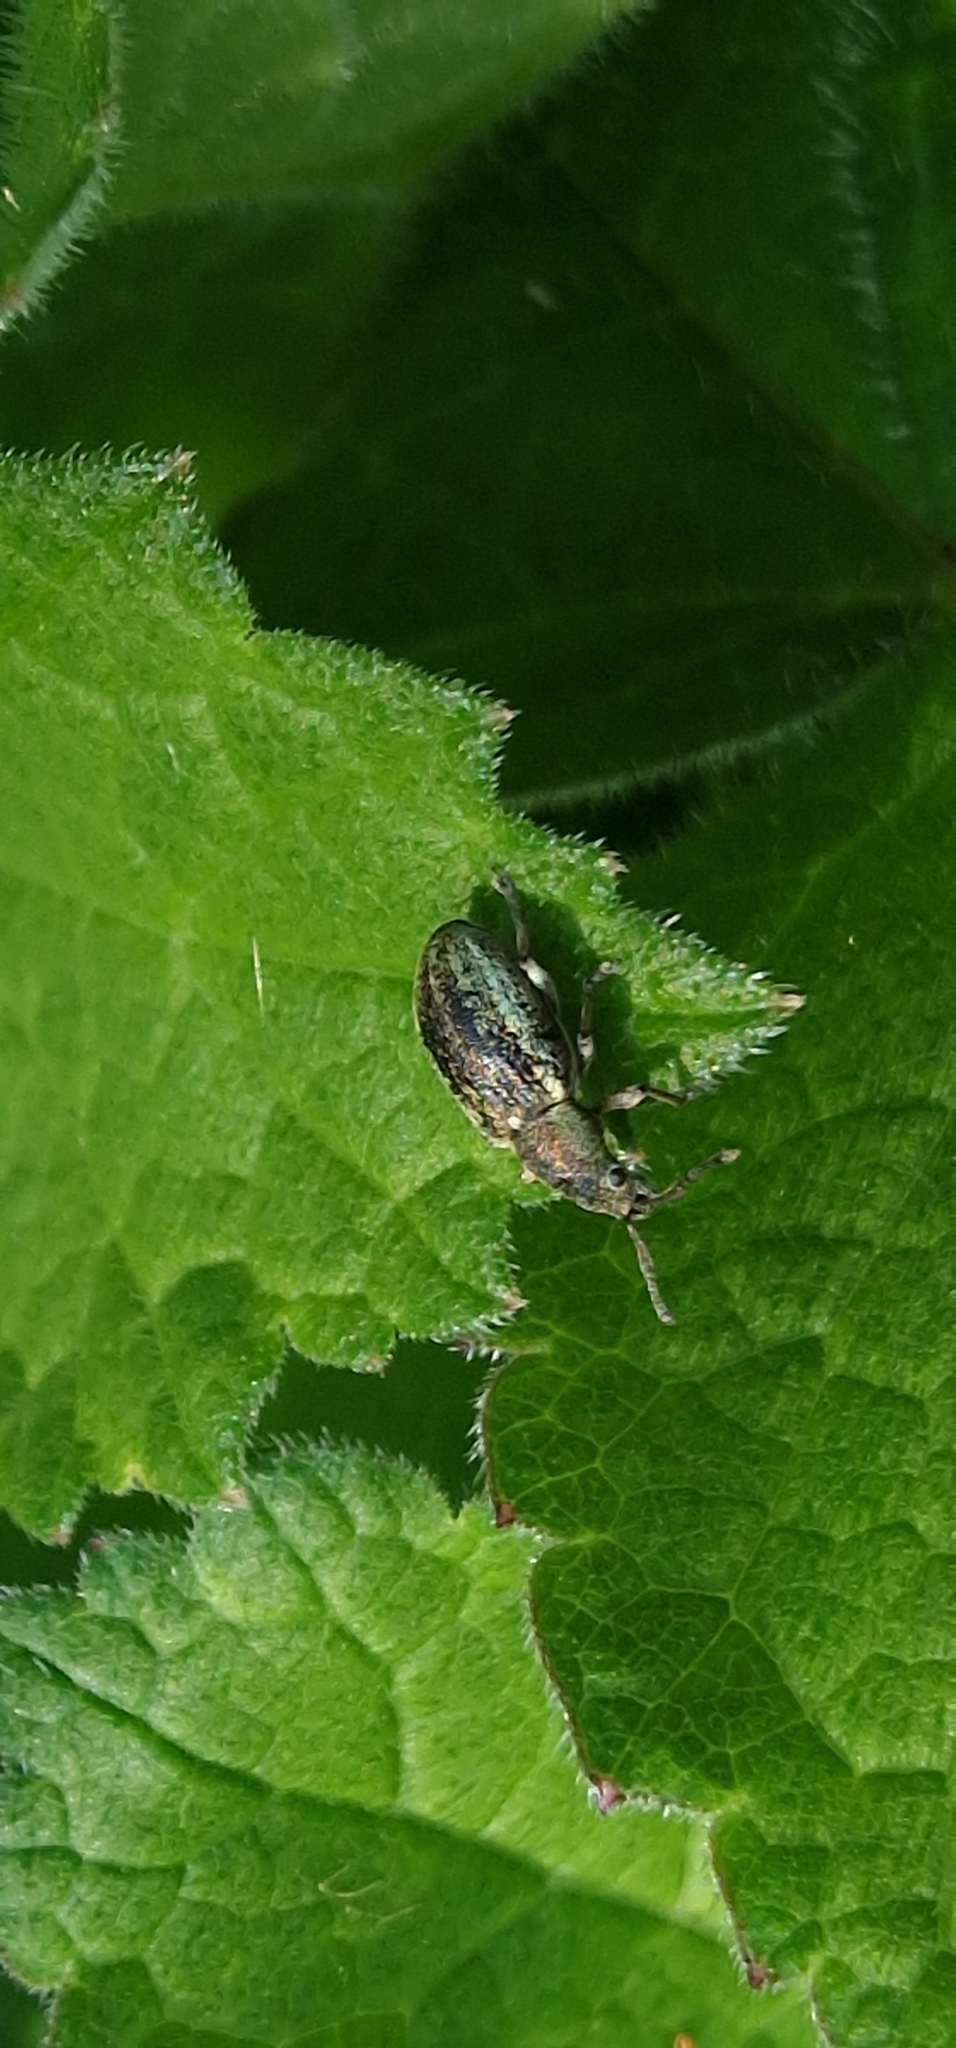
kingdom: Animalia
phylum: Arthropoda
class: Insecta
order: Coleoptera
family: Curculionidae
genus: Phyllobius
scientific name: Phyllobius pyri
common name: Common leaf weevil
